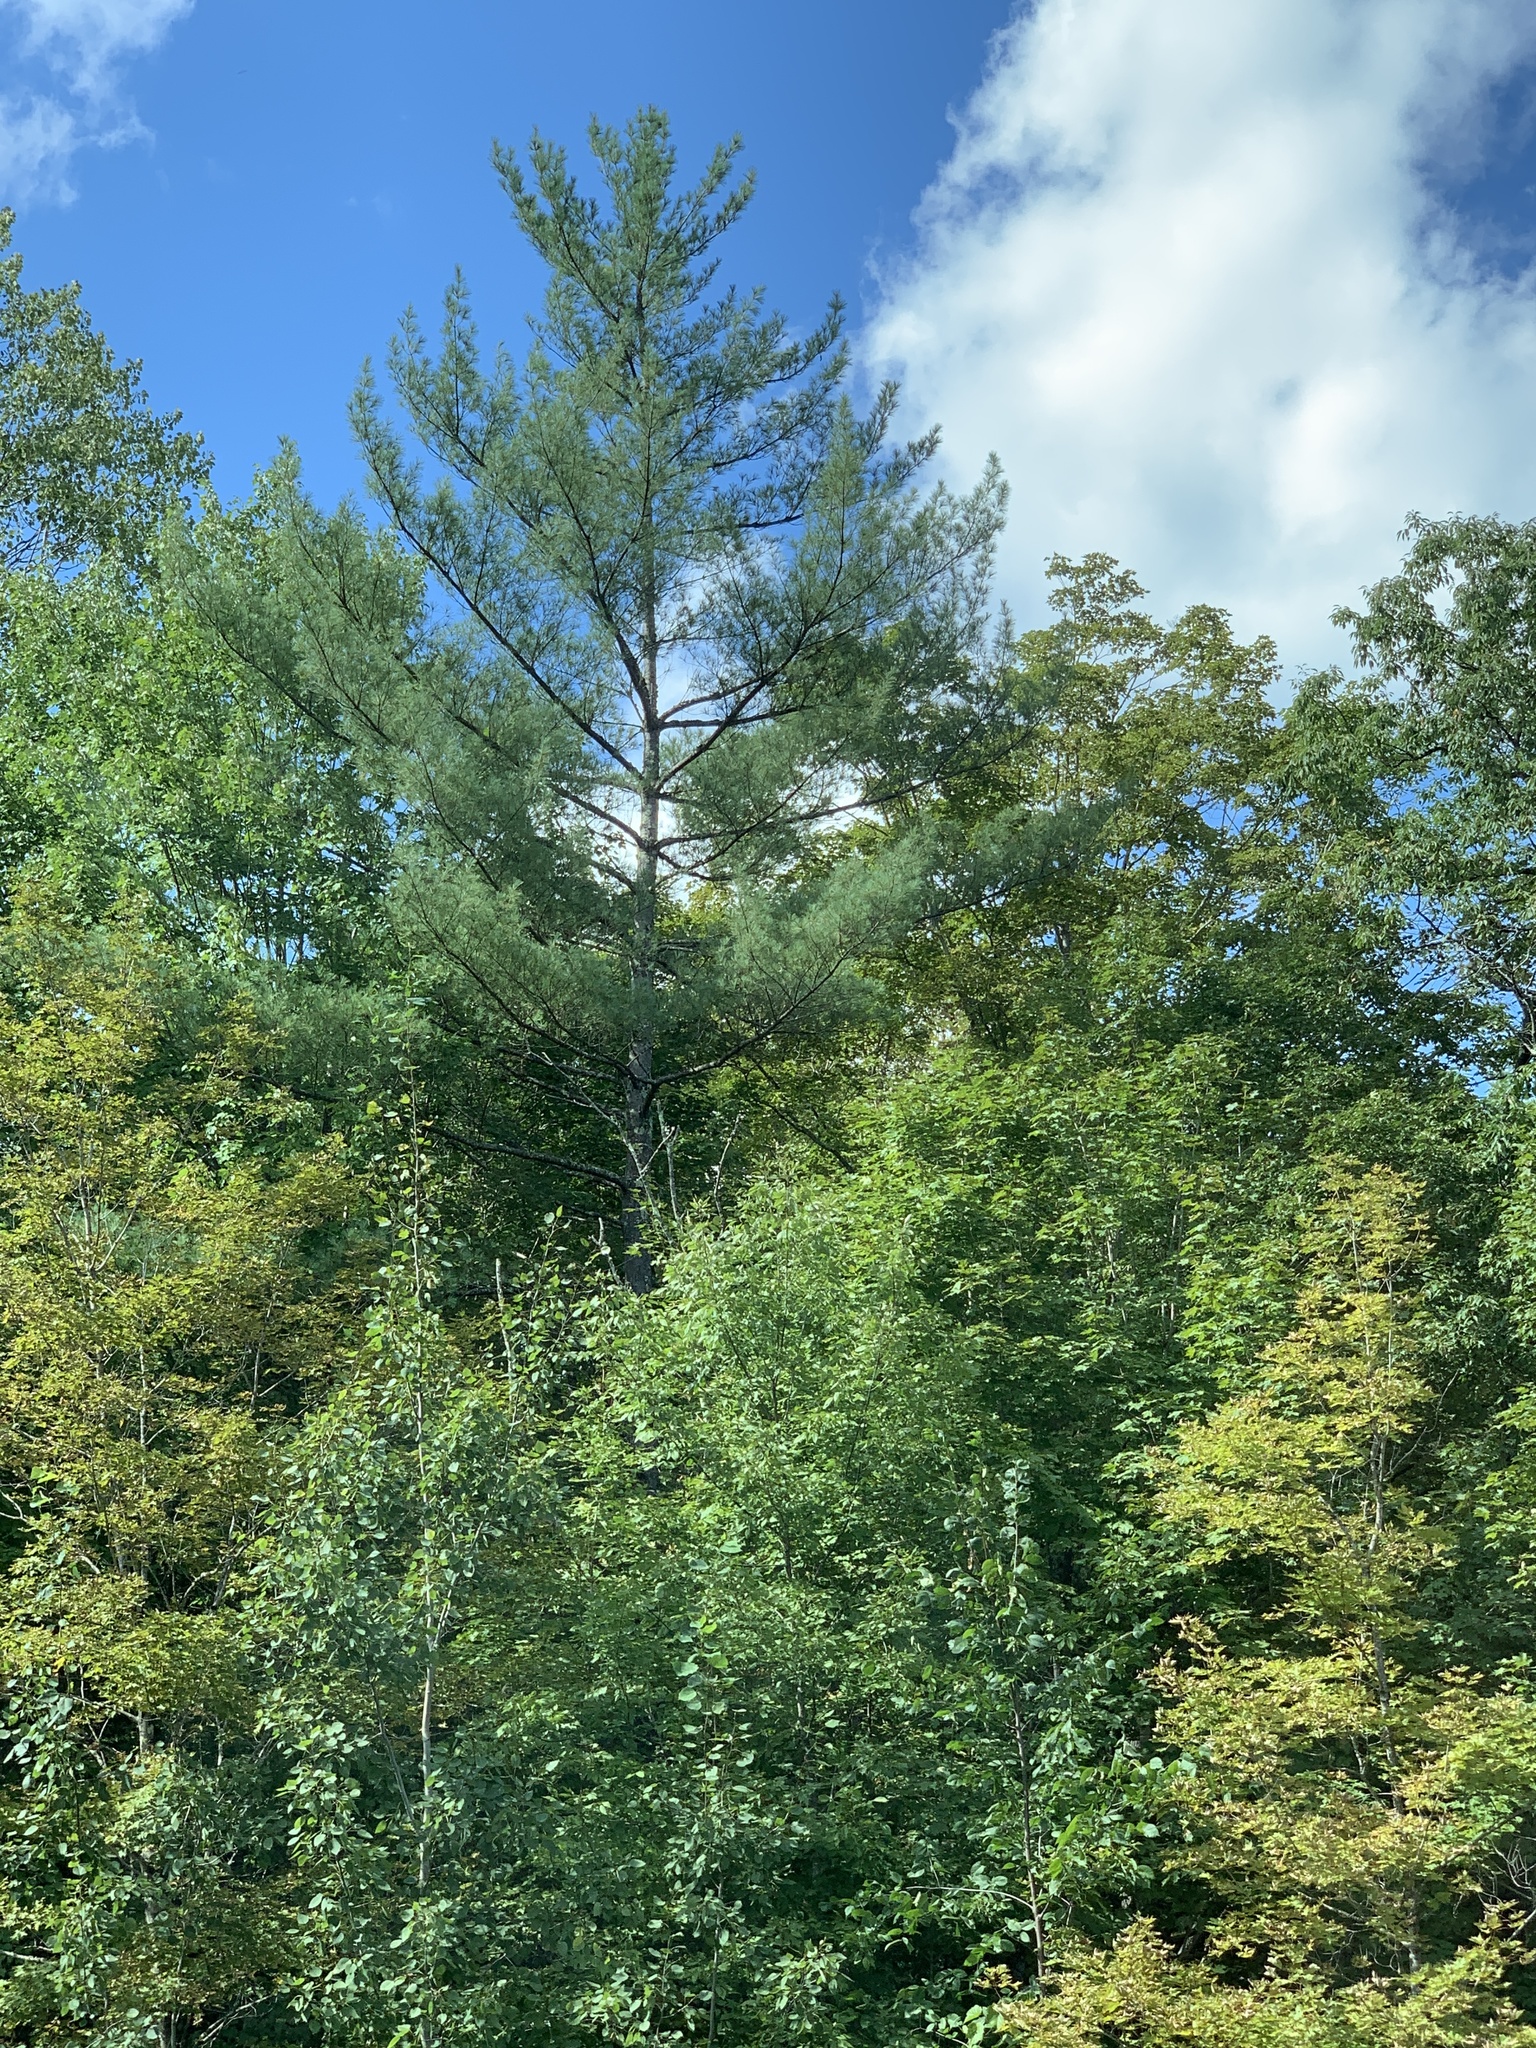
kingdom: Plantae
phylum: Tracheophyta
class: Pinopsida
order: Pinales
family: Pinaceae
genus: Pinus
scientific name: Pinus strobus
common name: Weymouth pine
